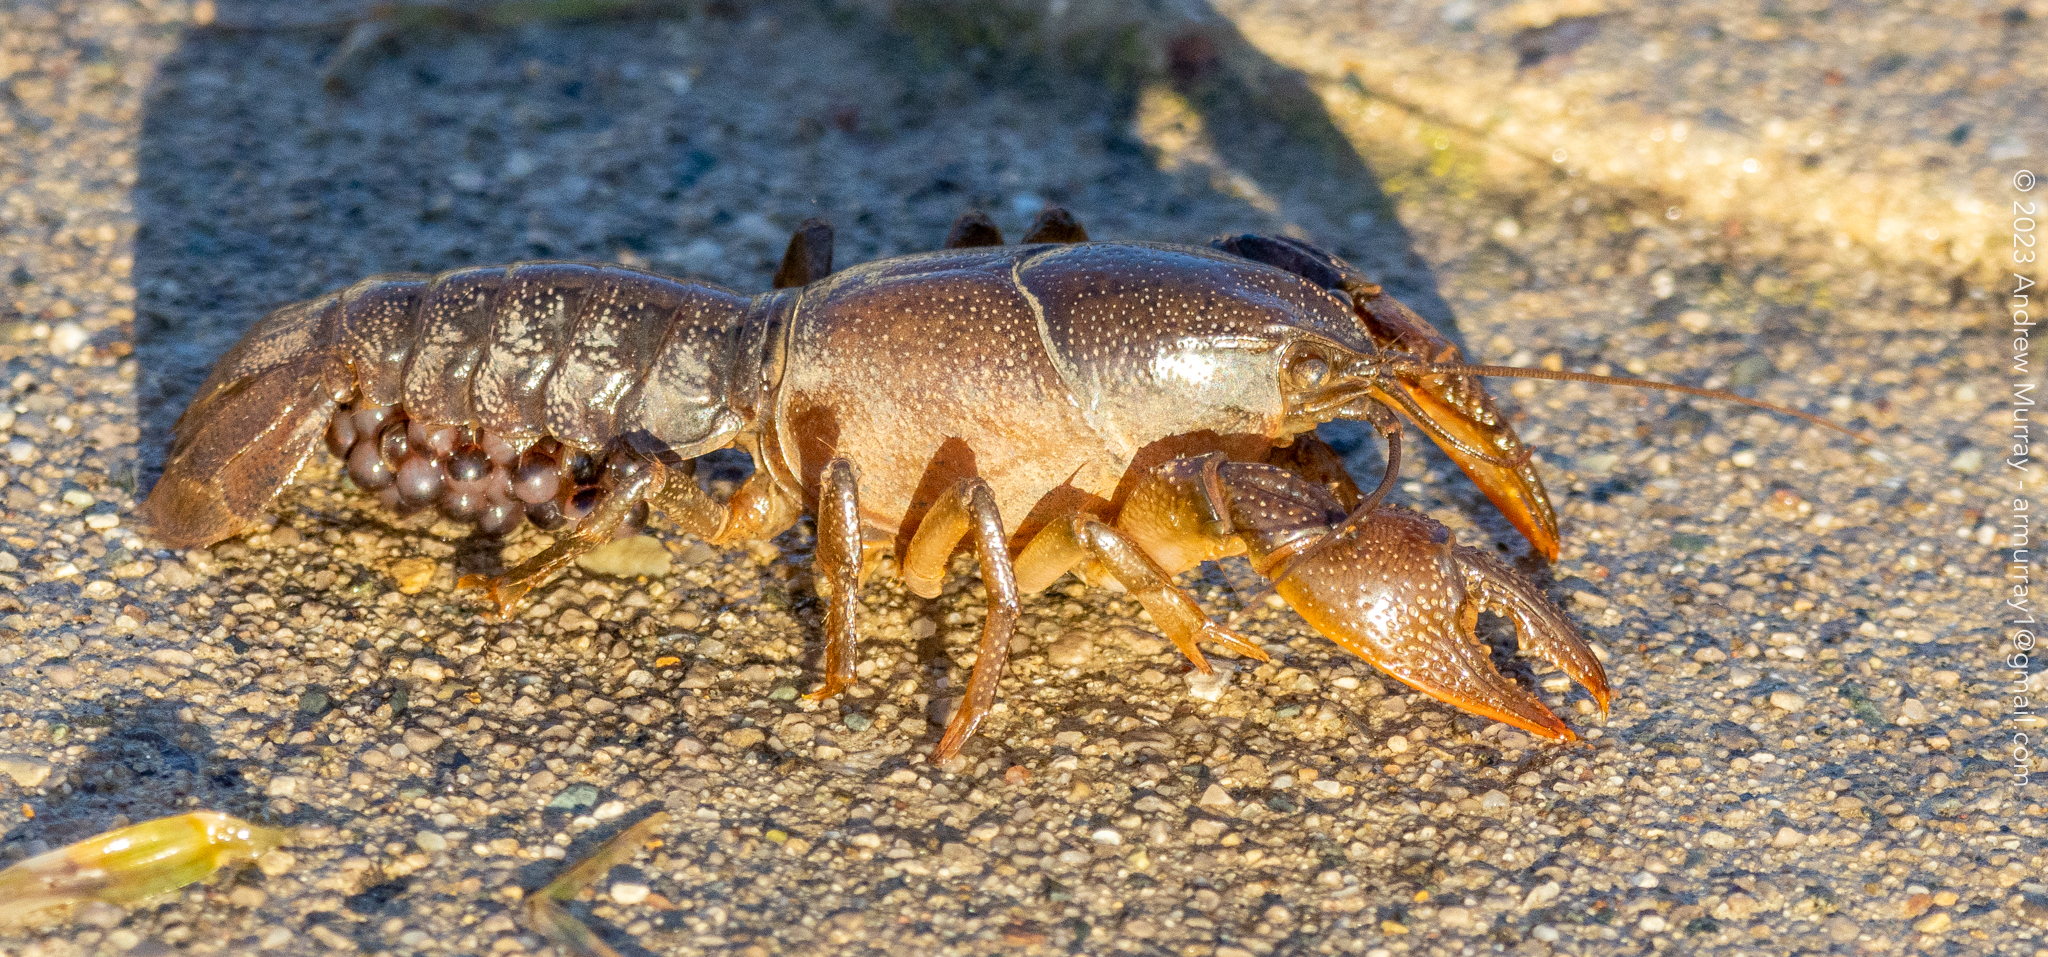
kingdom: Animalia
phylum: Arthropoda
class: Malacostraca
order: Decapoda
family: Cambaridae
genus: Creaserinus
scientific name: Creaserinus fodiens
